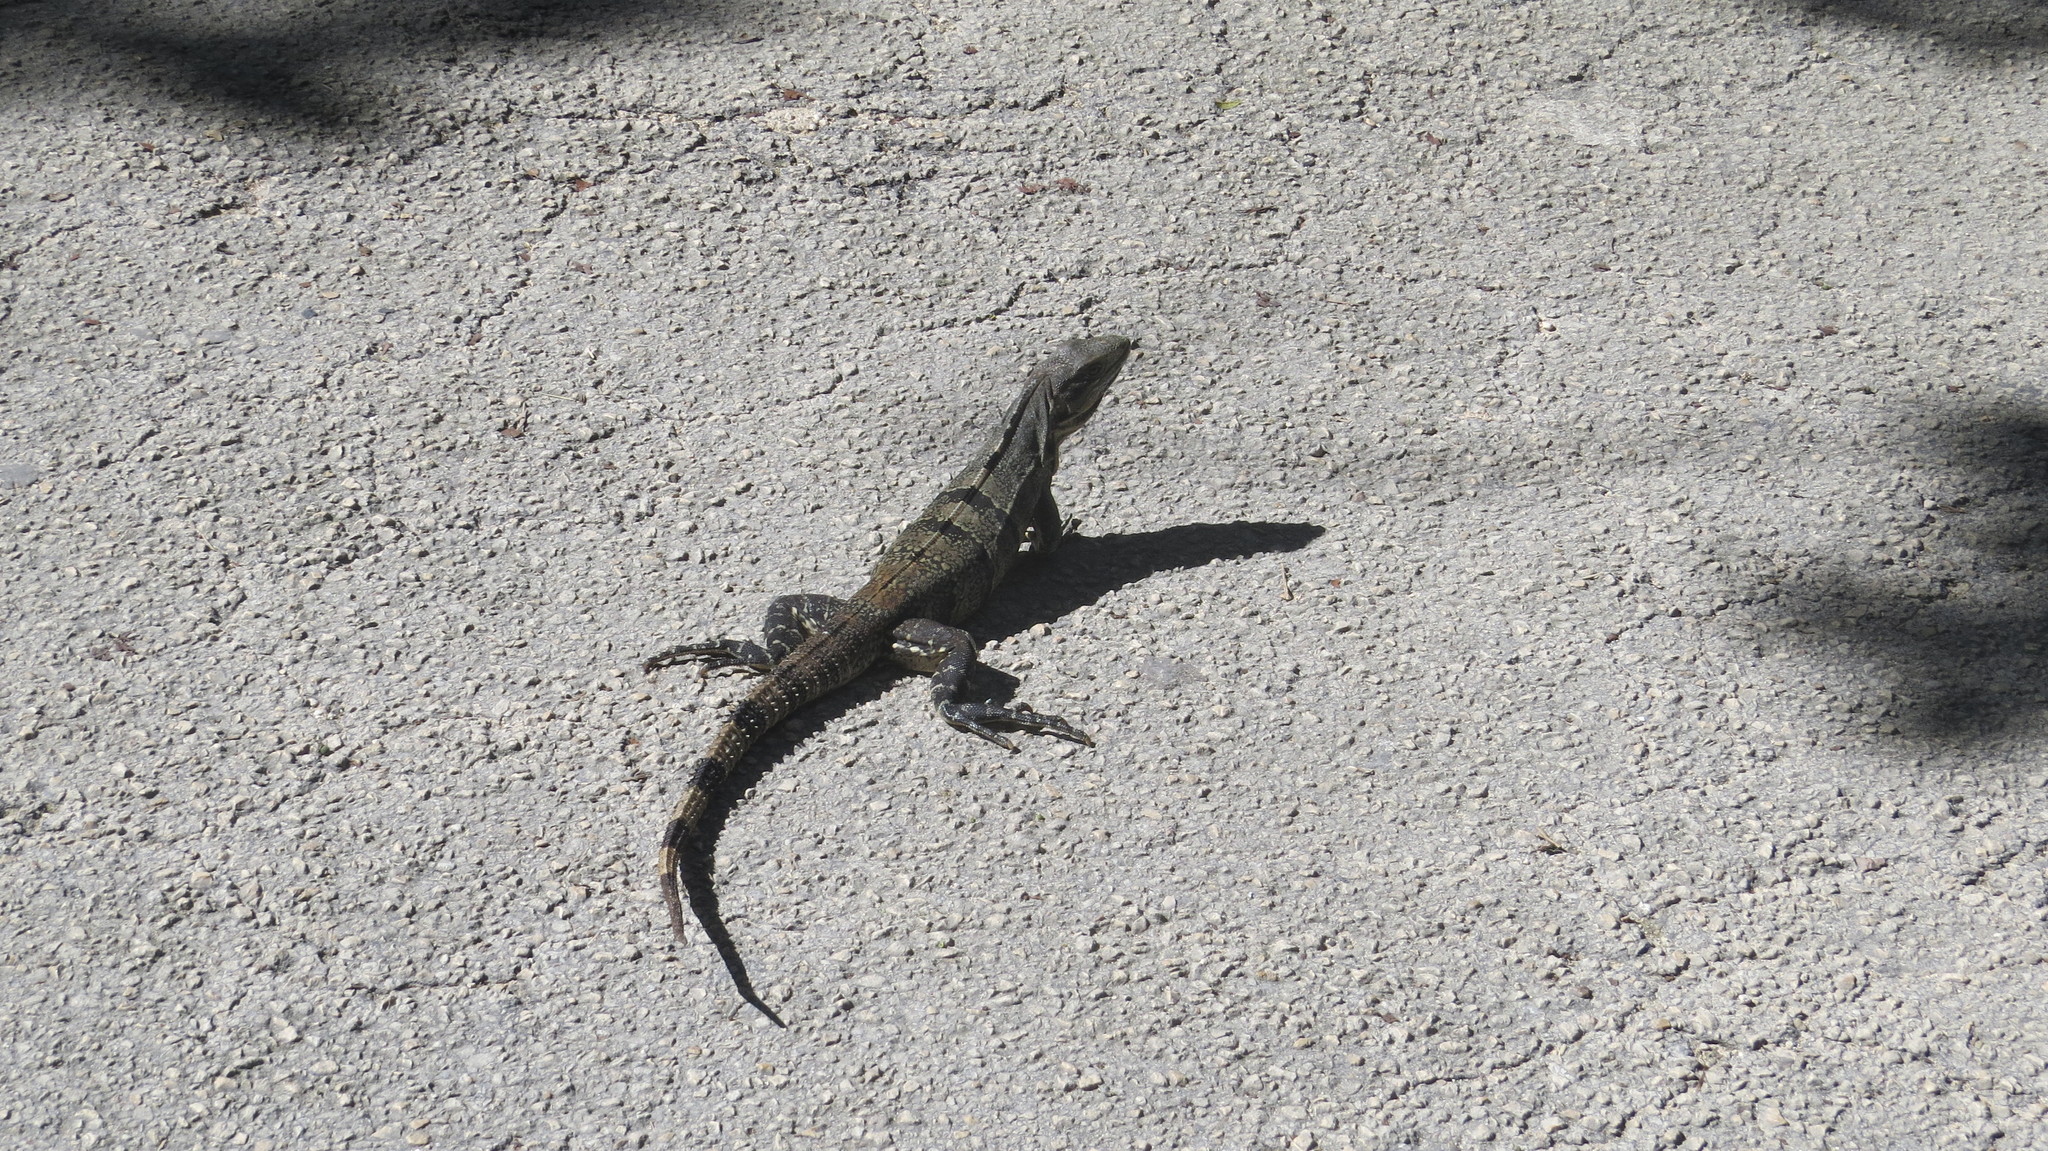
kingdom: Animalia
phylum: Chordata
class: Squamata
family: Iguanidae
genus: Ctenosaura
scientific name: Ctenosaura similis
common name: Black spiny-tailed iguana
